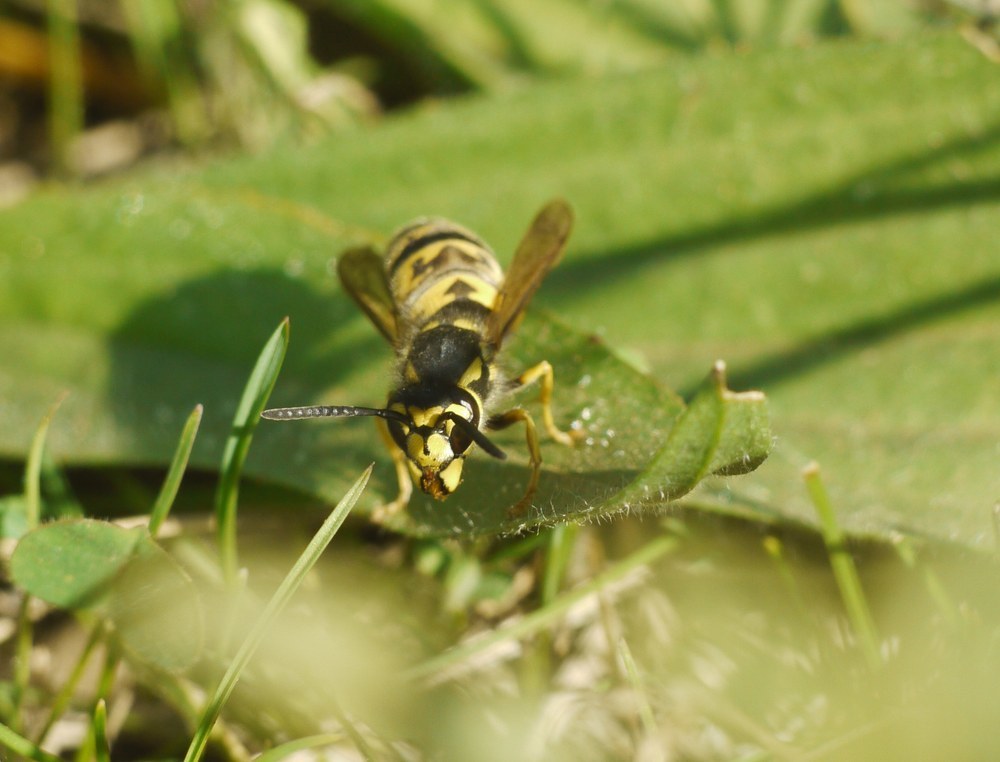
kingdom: Animalia
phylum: Arthropoda
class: Insecta
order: Hymenoptera
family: Vespidae
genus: Vespula
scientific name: Vespula germanica
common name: German wasp
